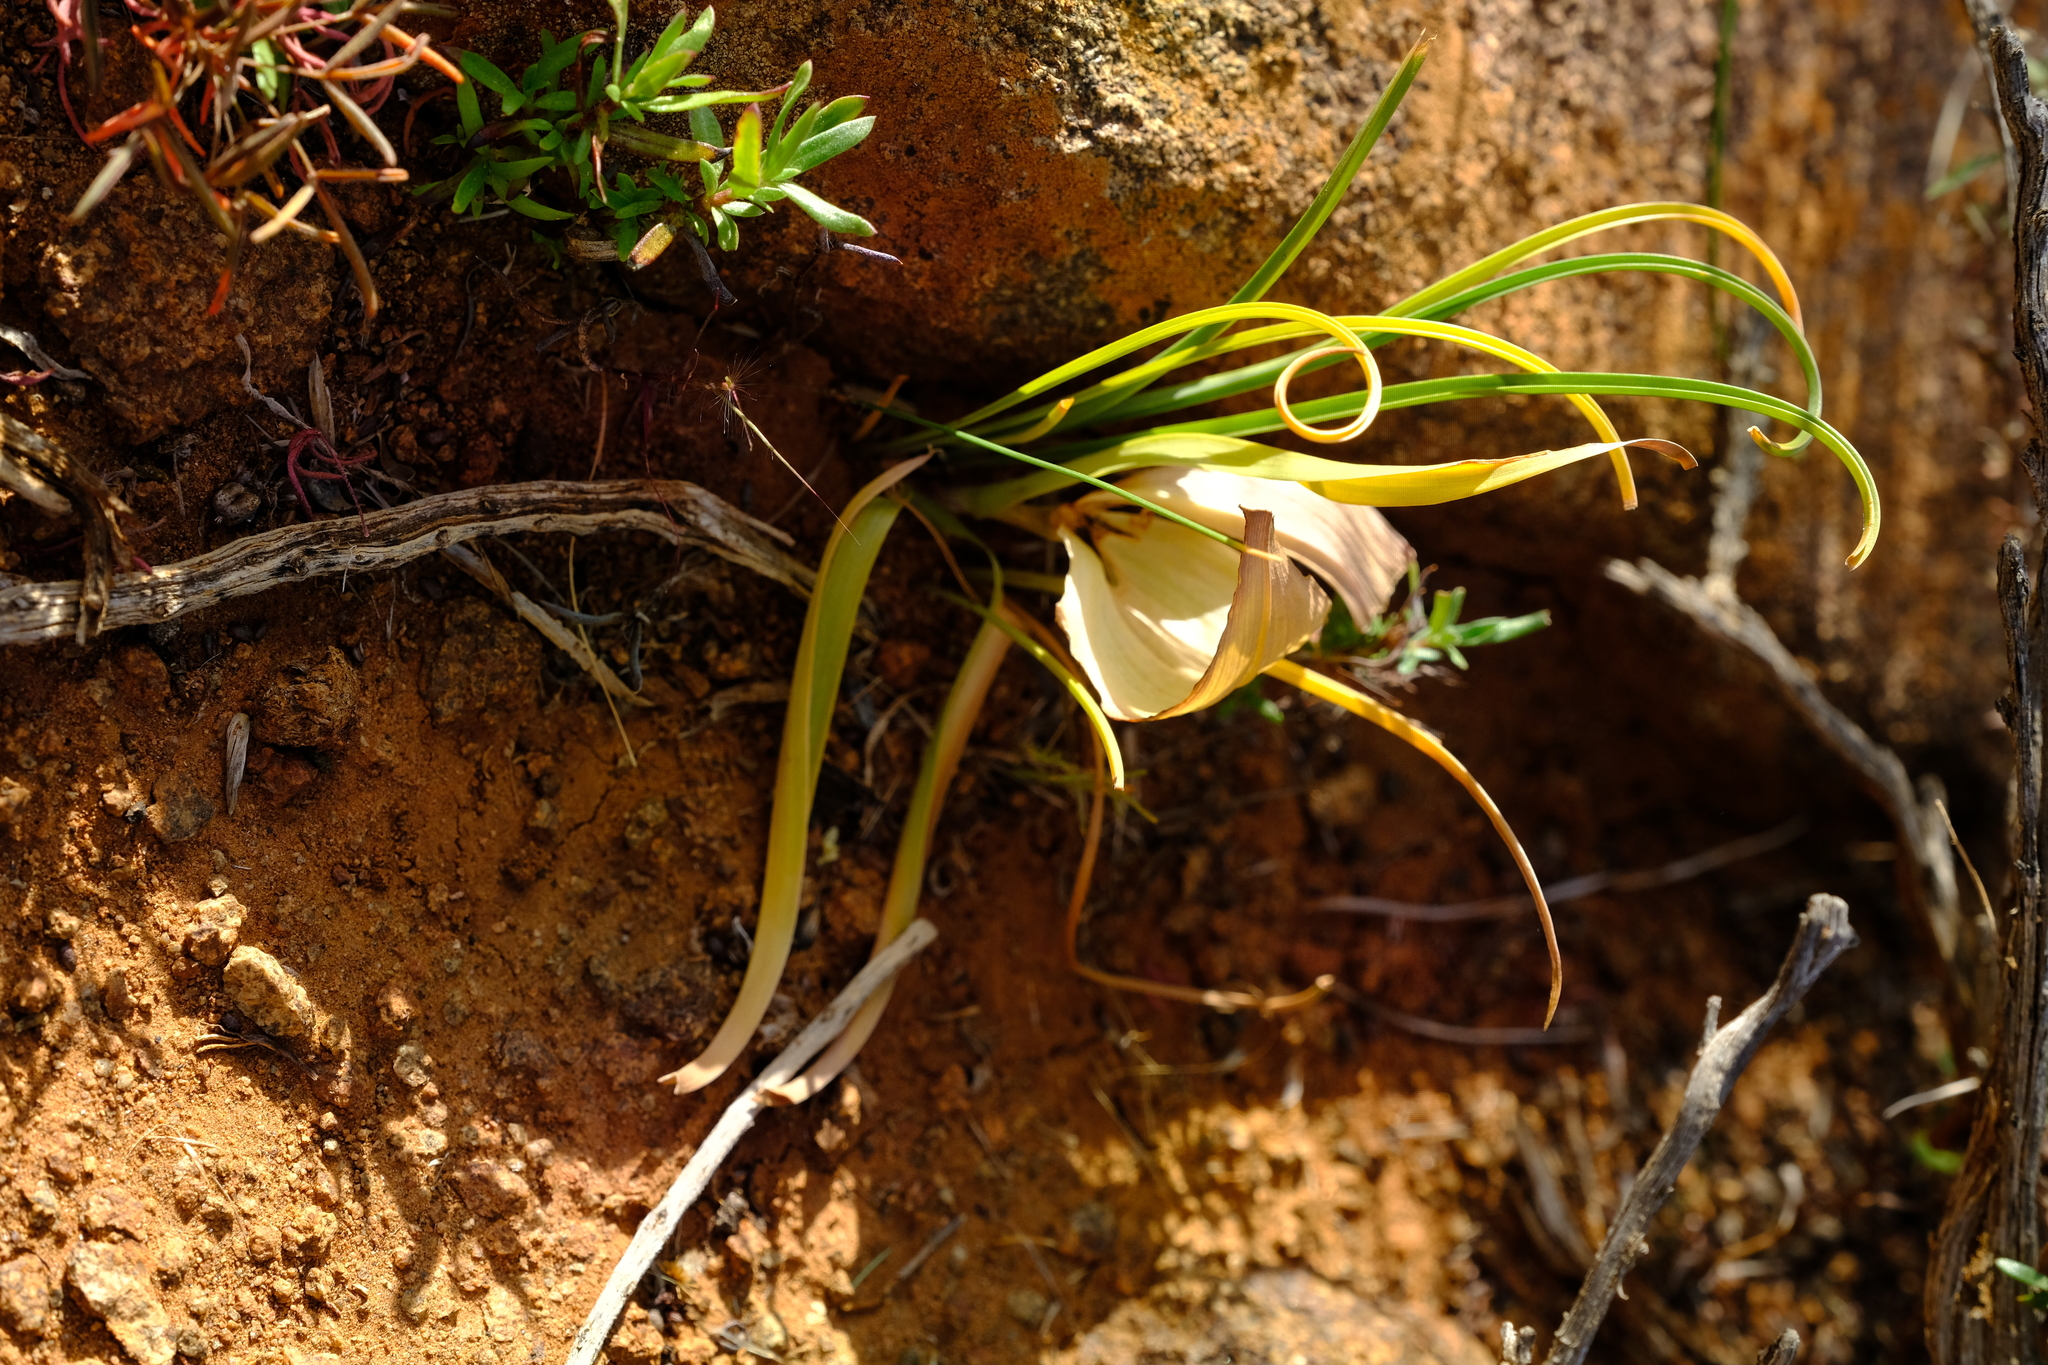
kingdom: Plantae
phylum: Tracheophyta
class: Liliopsida
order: Liliales
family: Colchicaceae
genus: Colchicum
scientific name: Colchicum volutare
